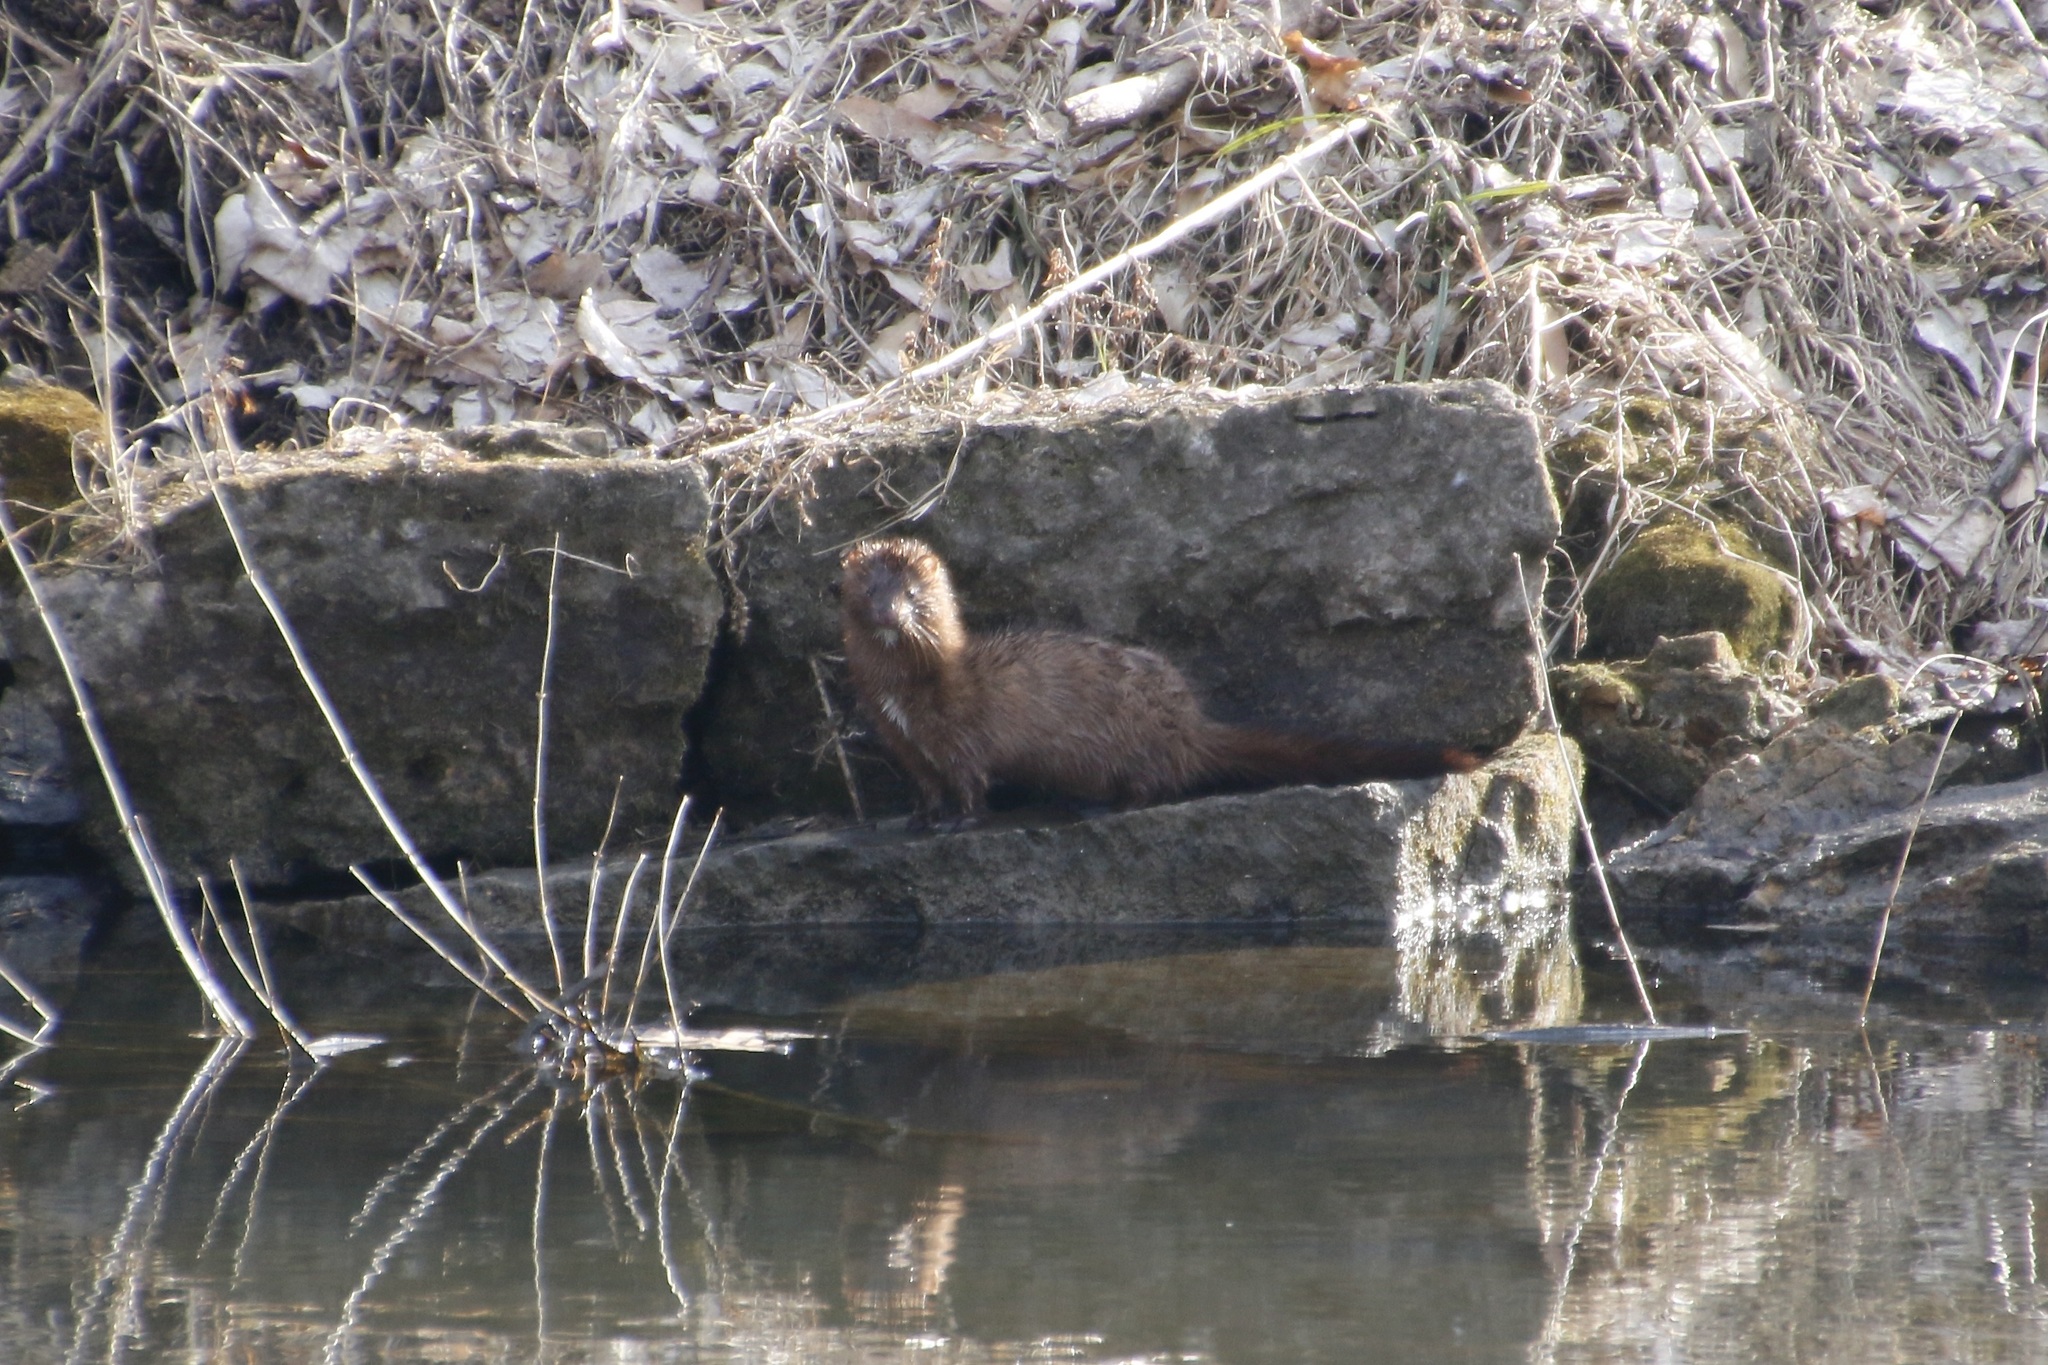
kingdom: Animalia
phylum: Chordata
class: Mammalia
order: Carnivora
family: Mustelidae
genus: Mustela
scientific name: Mustela
